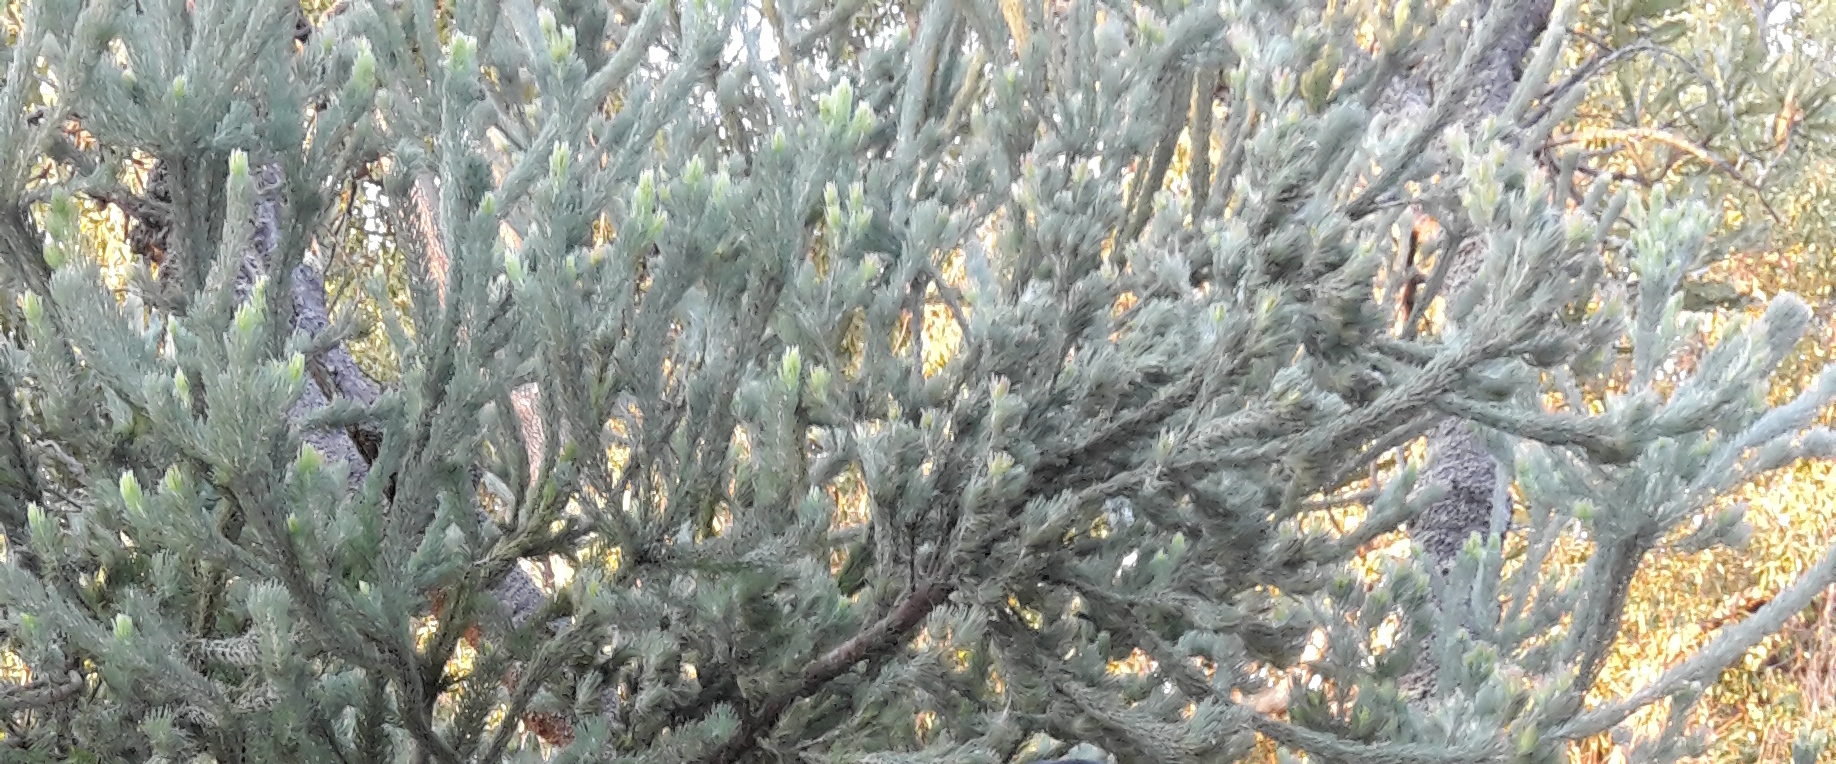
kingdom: Plantae
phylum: Tracheophyta
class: Magnoliopsida
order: Proteales
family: Proteaceae
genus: Adenanthos
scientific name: Adenanthos cygnorum
